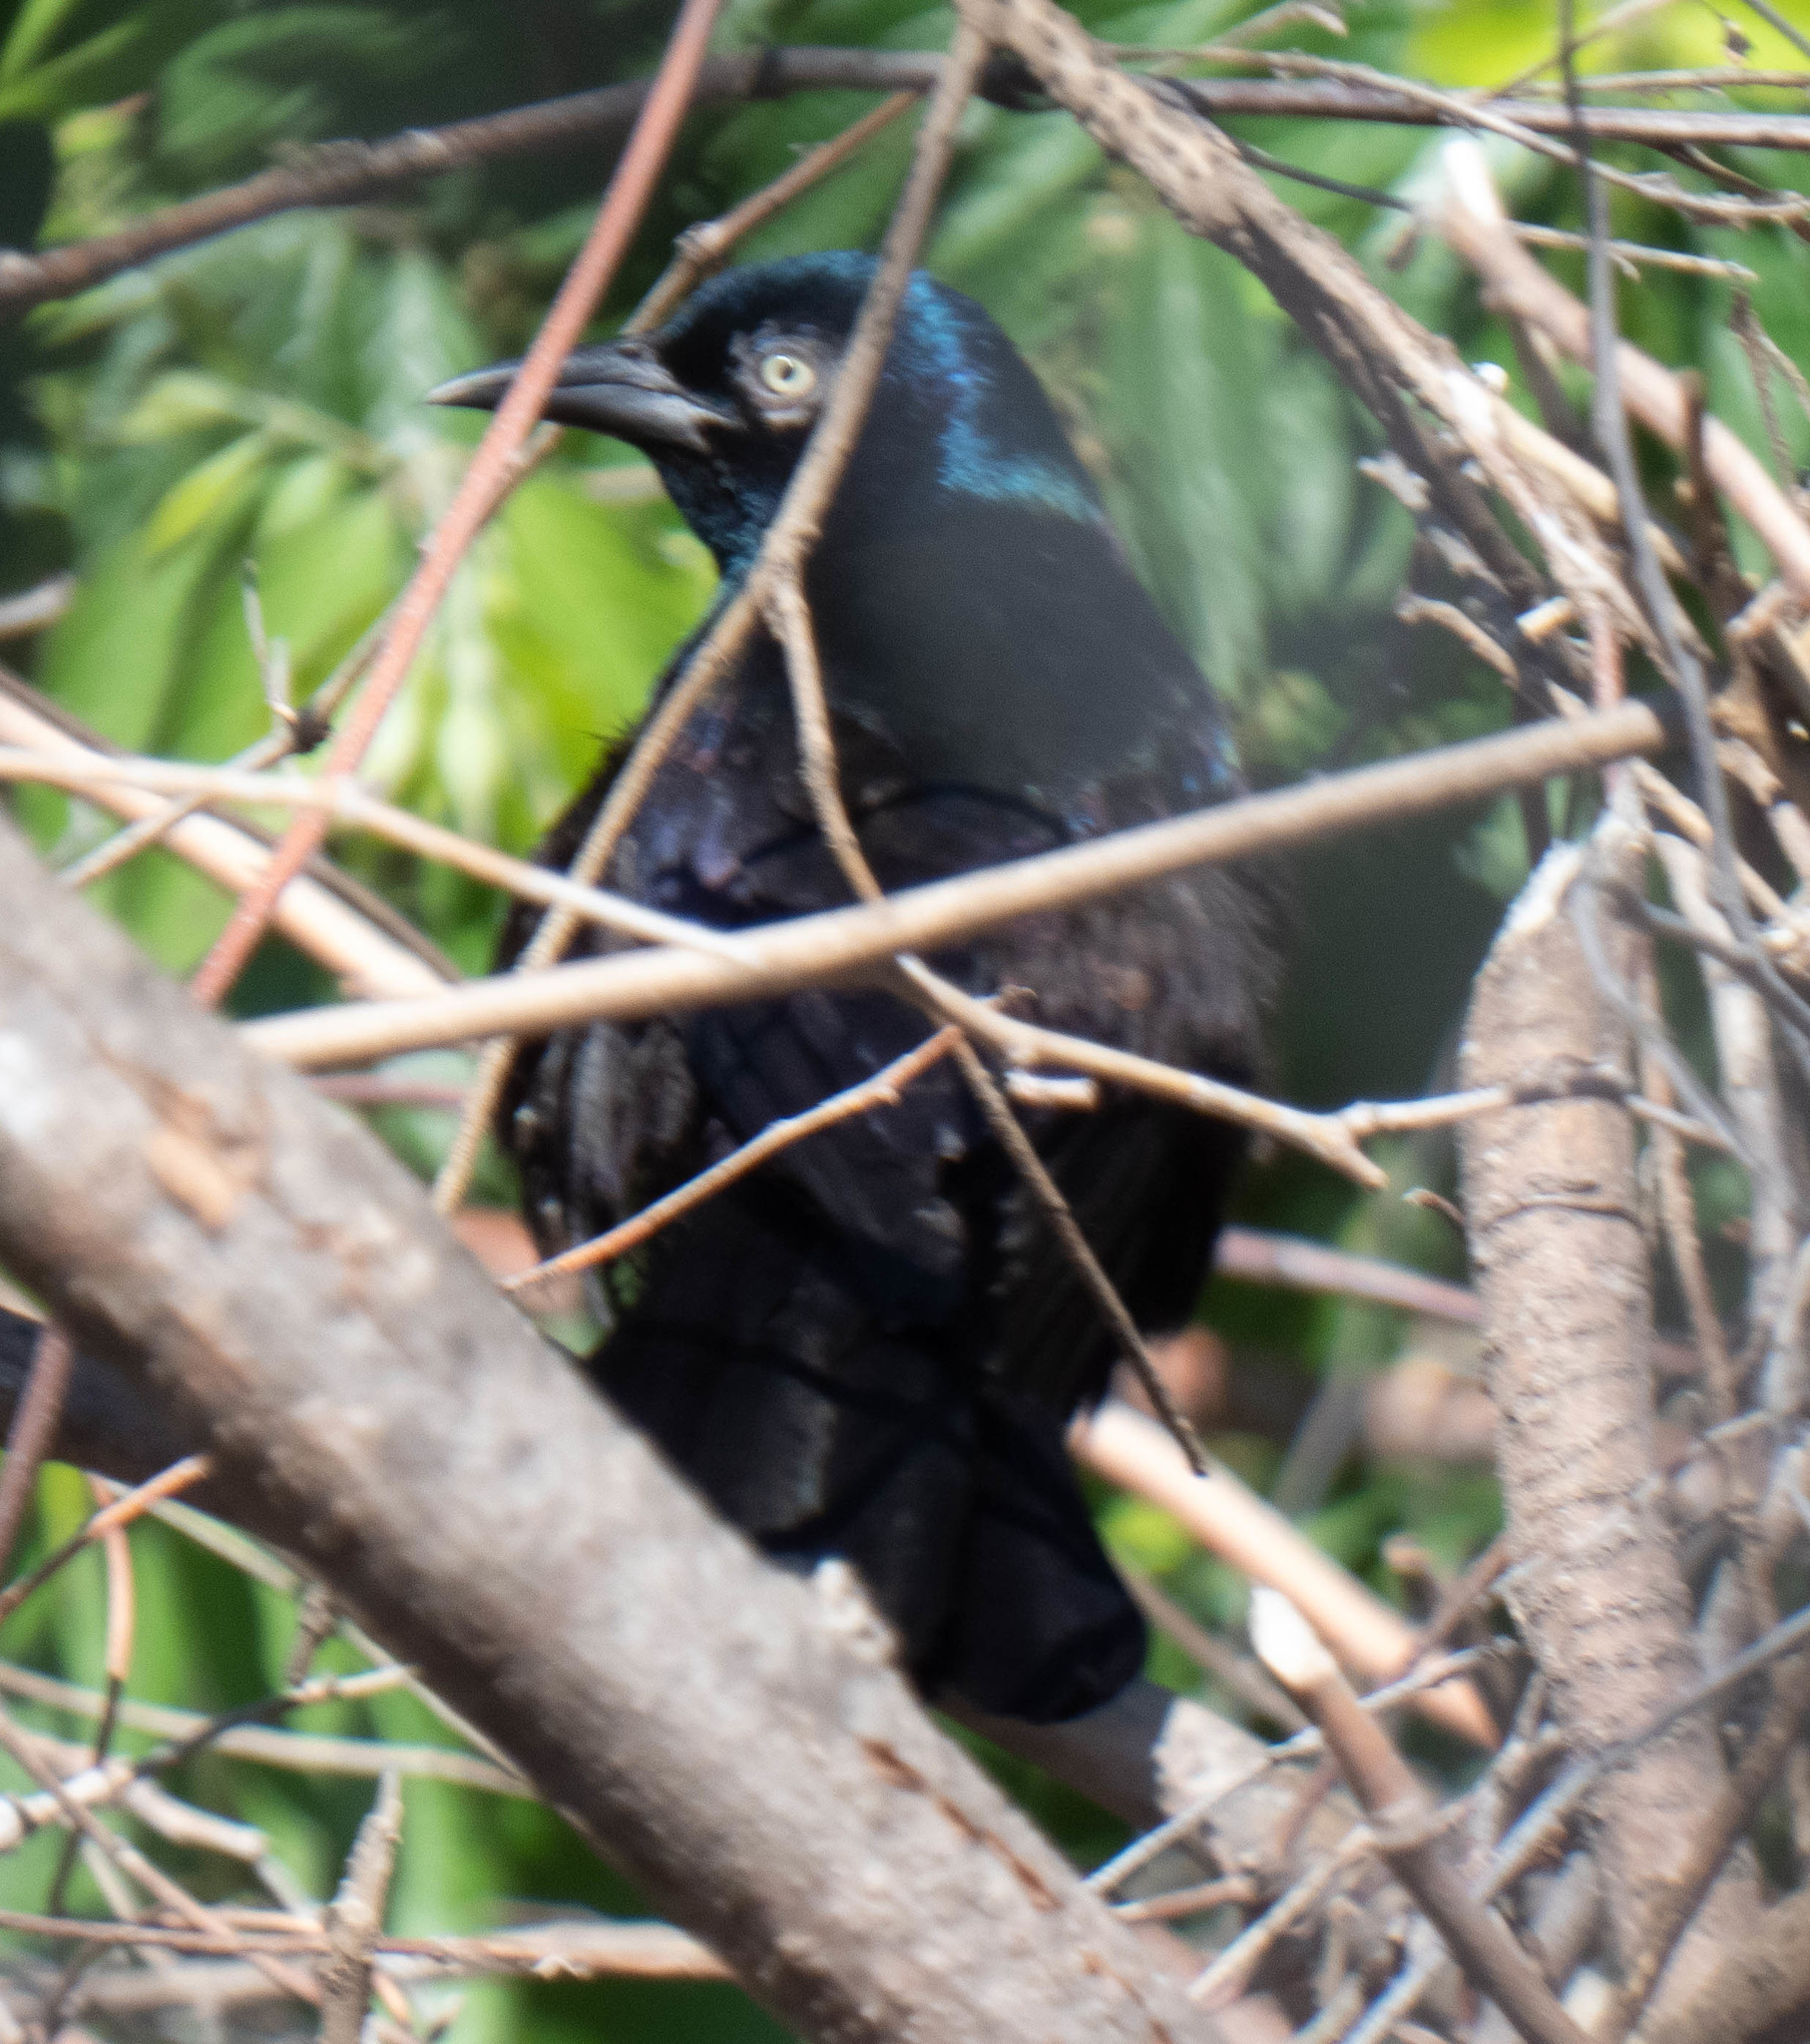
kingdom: Animalia
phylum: Chordata
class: Aves
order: Passeriformes
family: Icteridae
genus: Quiscalus
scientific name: Quiscalus quiscula
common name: Common grackle
